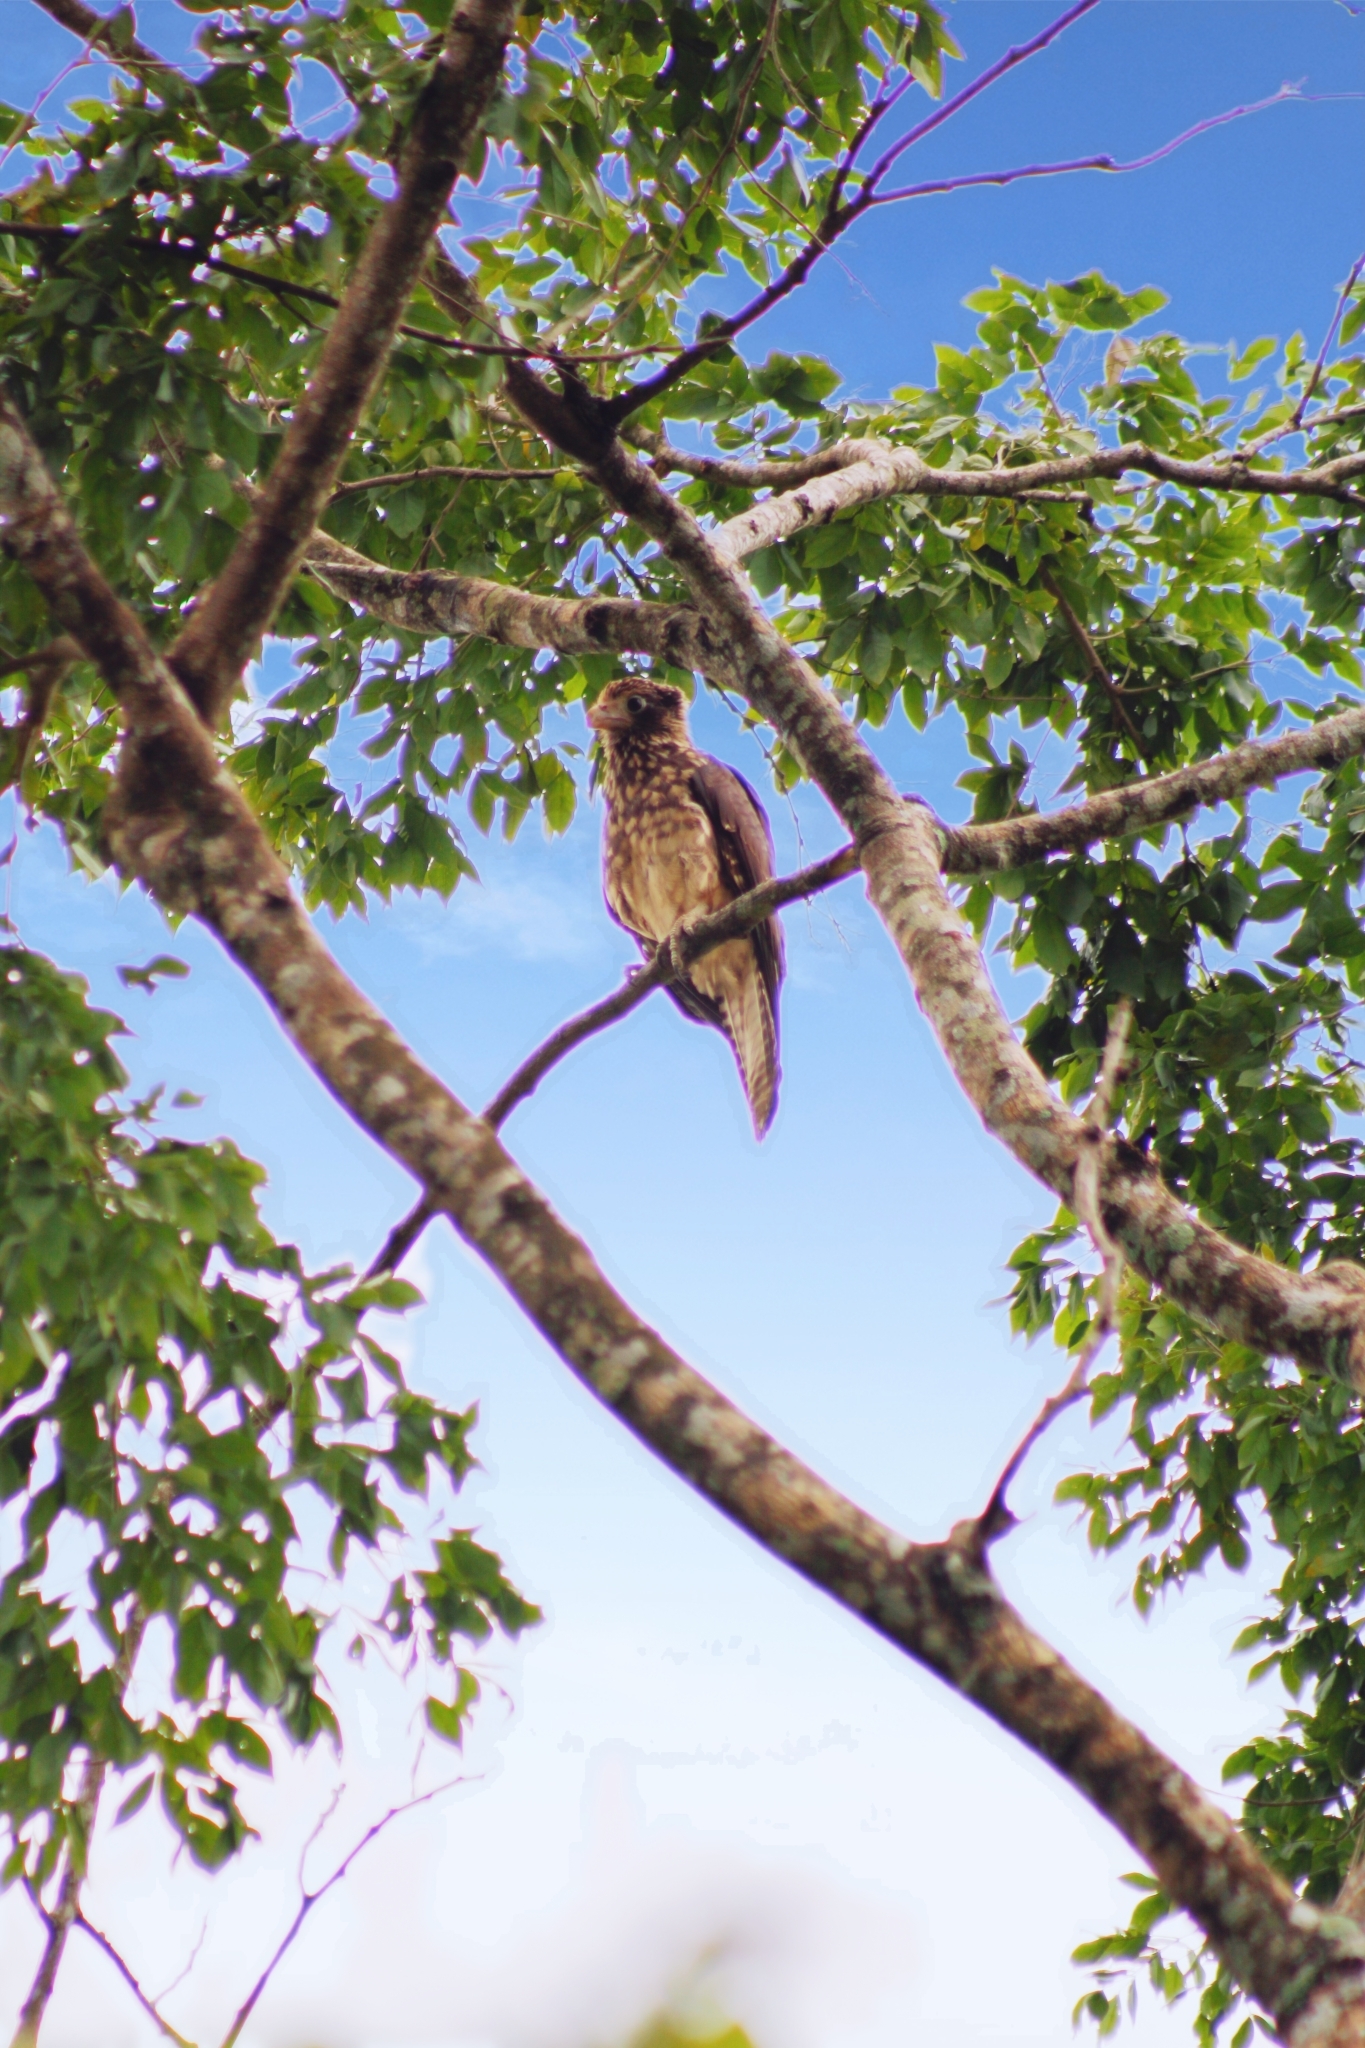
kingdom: Animalia
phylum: Chordata
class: Aves
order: Falconiformes
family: Falconidae
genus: Daptrius
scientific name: Daptrius
